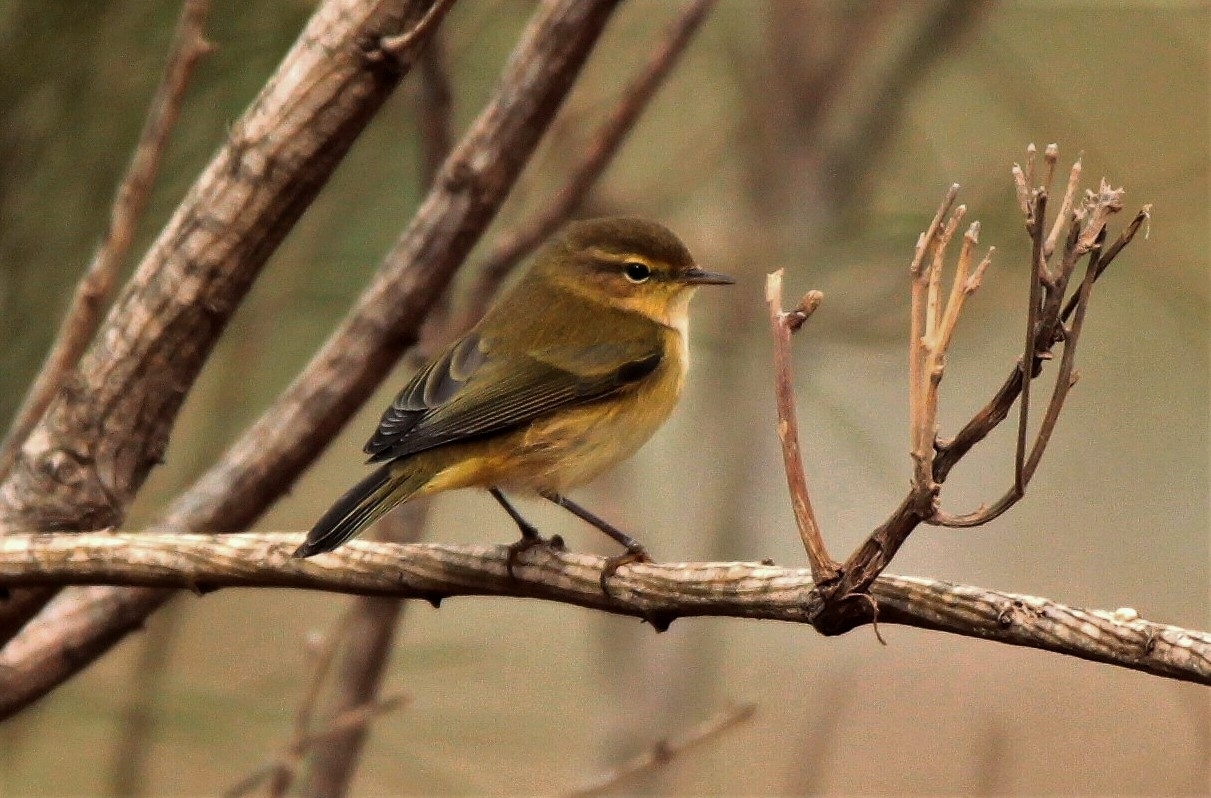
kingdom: Animalia
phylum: Chordata
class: Aves
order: Passeriformes
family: Phylloscopidae
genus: Phylloscopus
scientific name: Phylloscopus collybita
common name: Common chiffchaff
